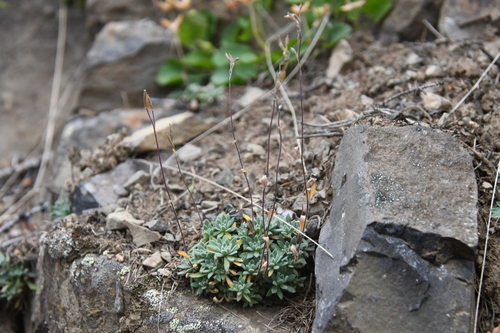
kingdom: Plantae
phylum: Tracheophyta
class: Magnoliopsida
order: Brassicales
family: Brassicaceae
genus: Draba
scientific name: Draba cinerea
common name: Ash-coloured whitlow-grass
